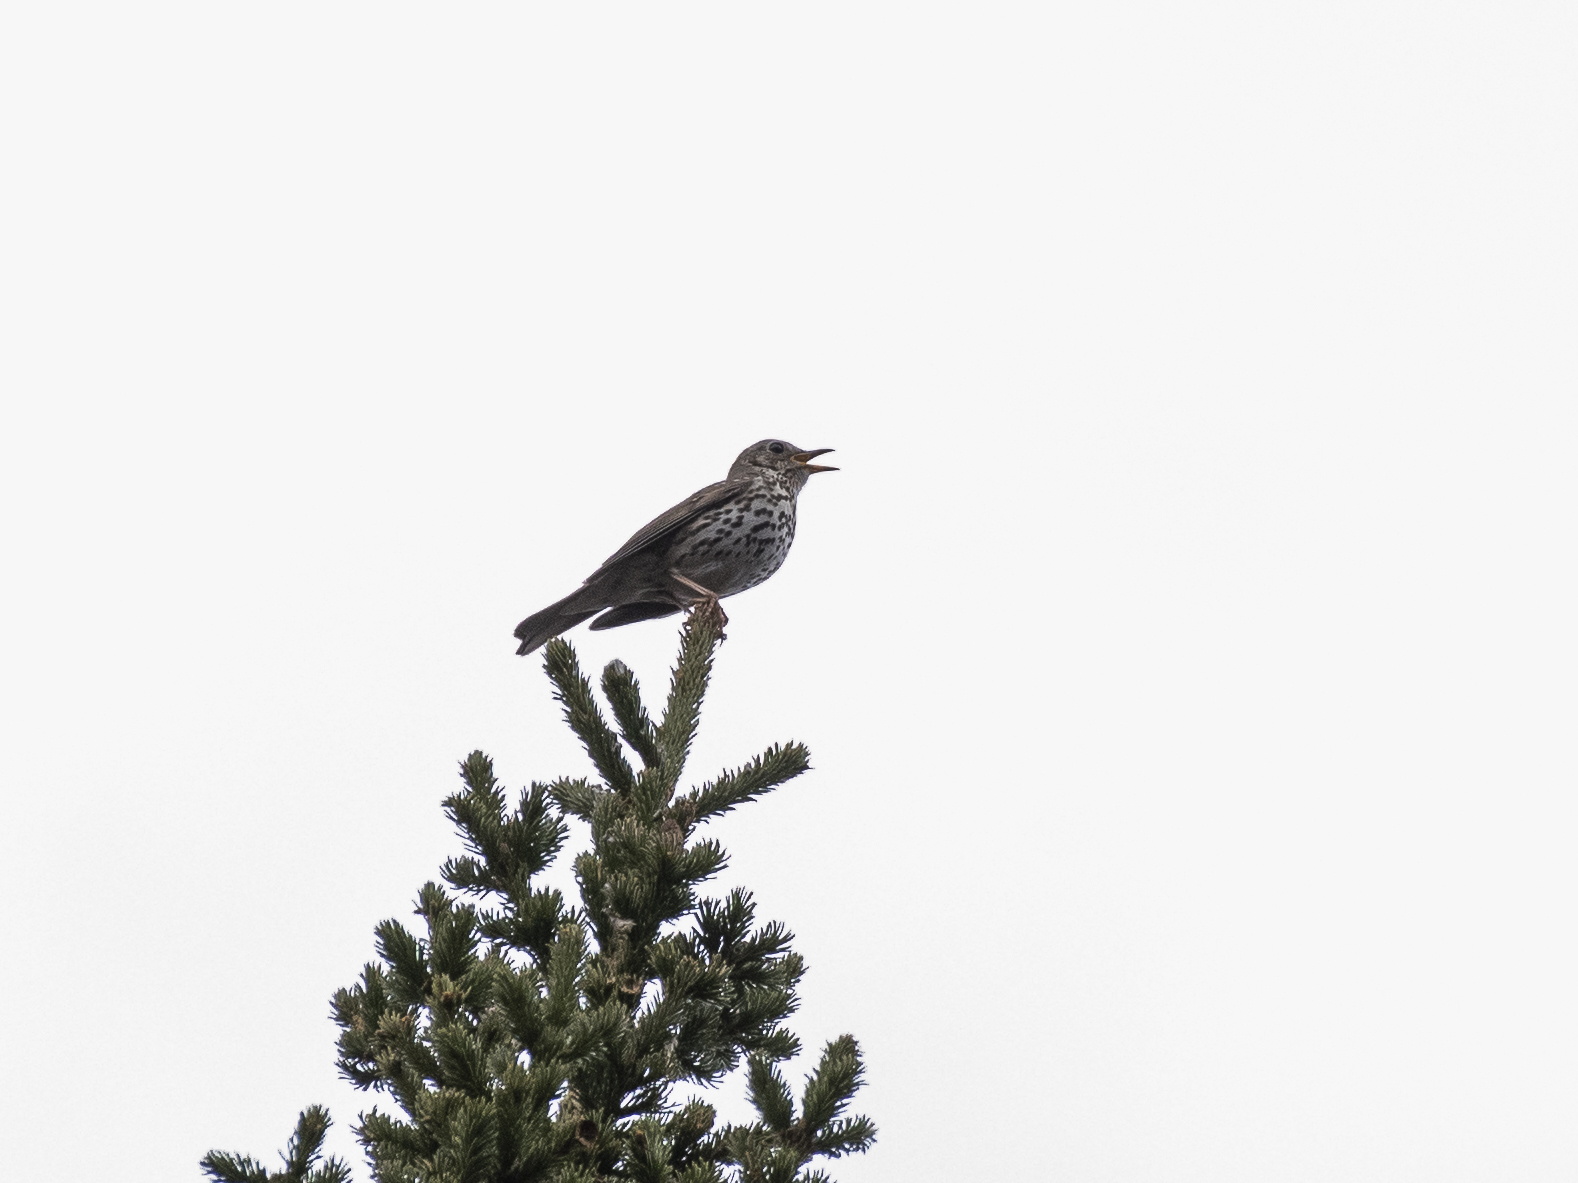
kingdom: Animalia
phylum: Chordata
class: Aves
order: Passeriformes
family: Turdidae
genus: Turdus
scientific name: Turdus philomelos
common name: Song thrush
